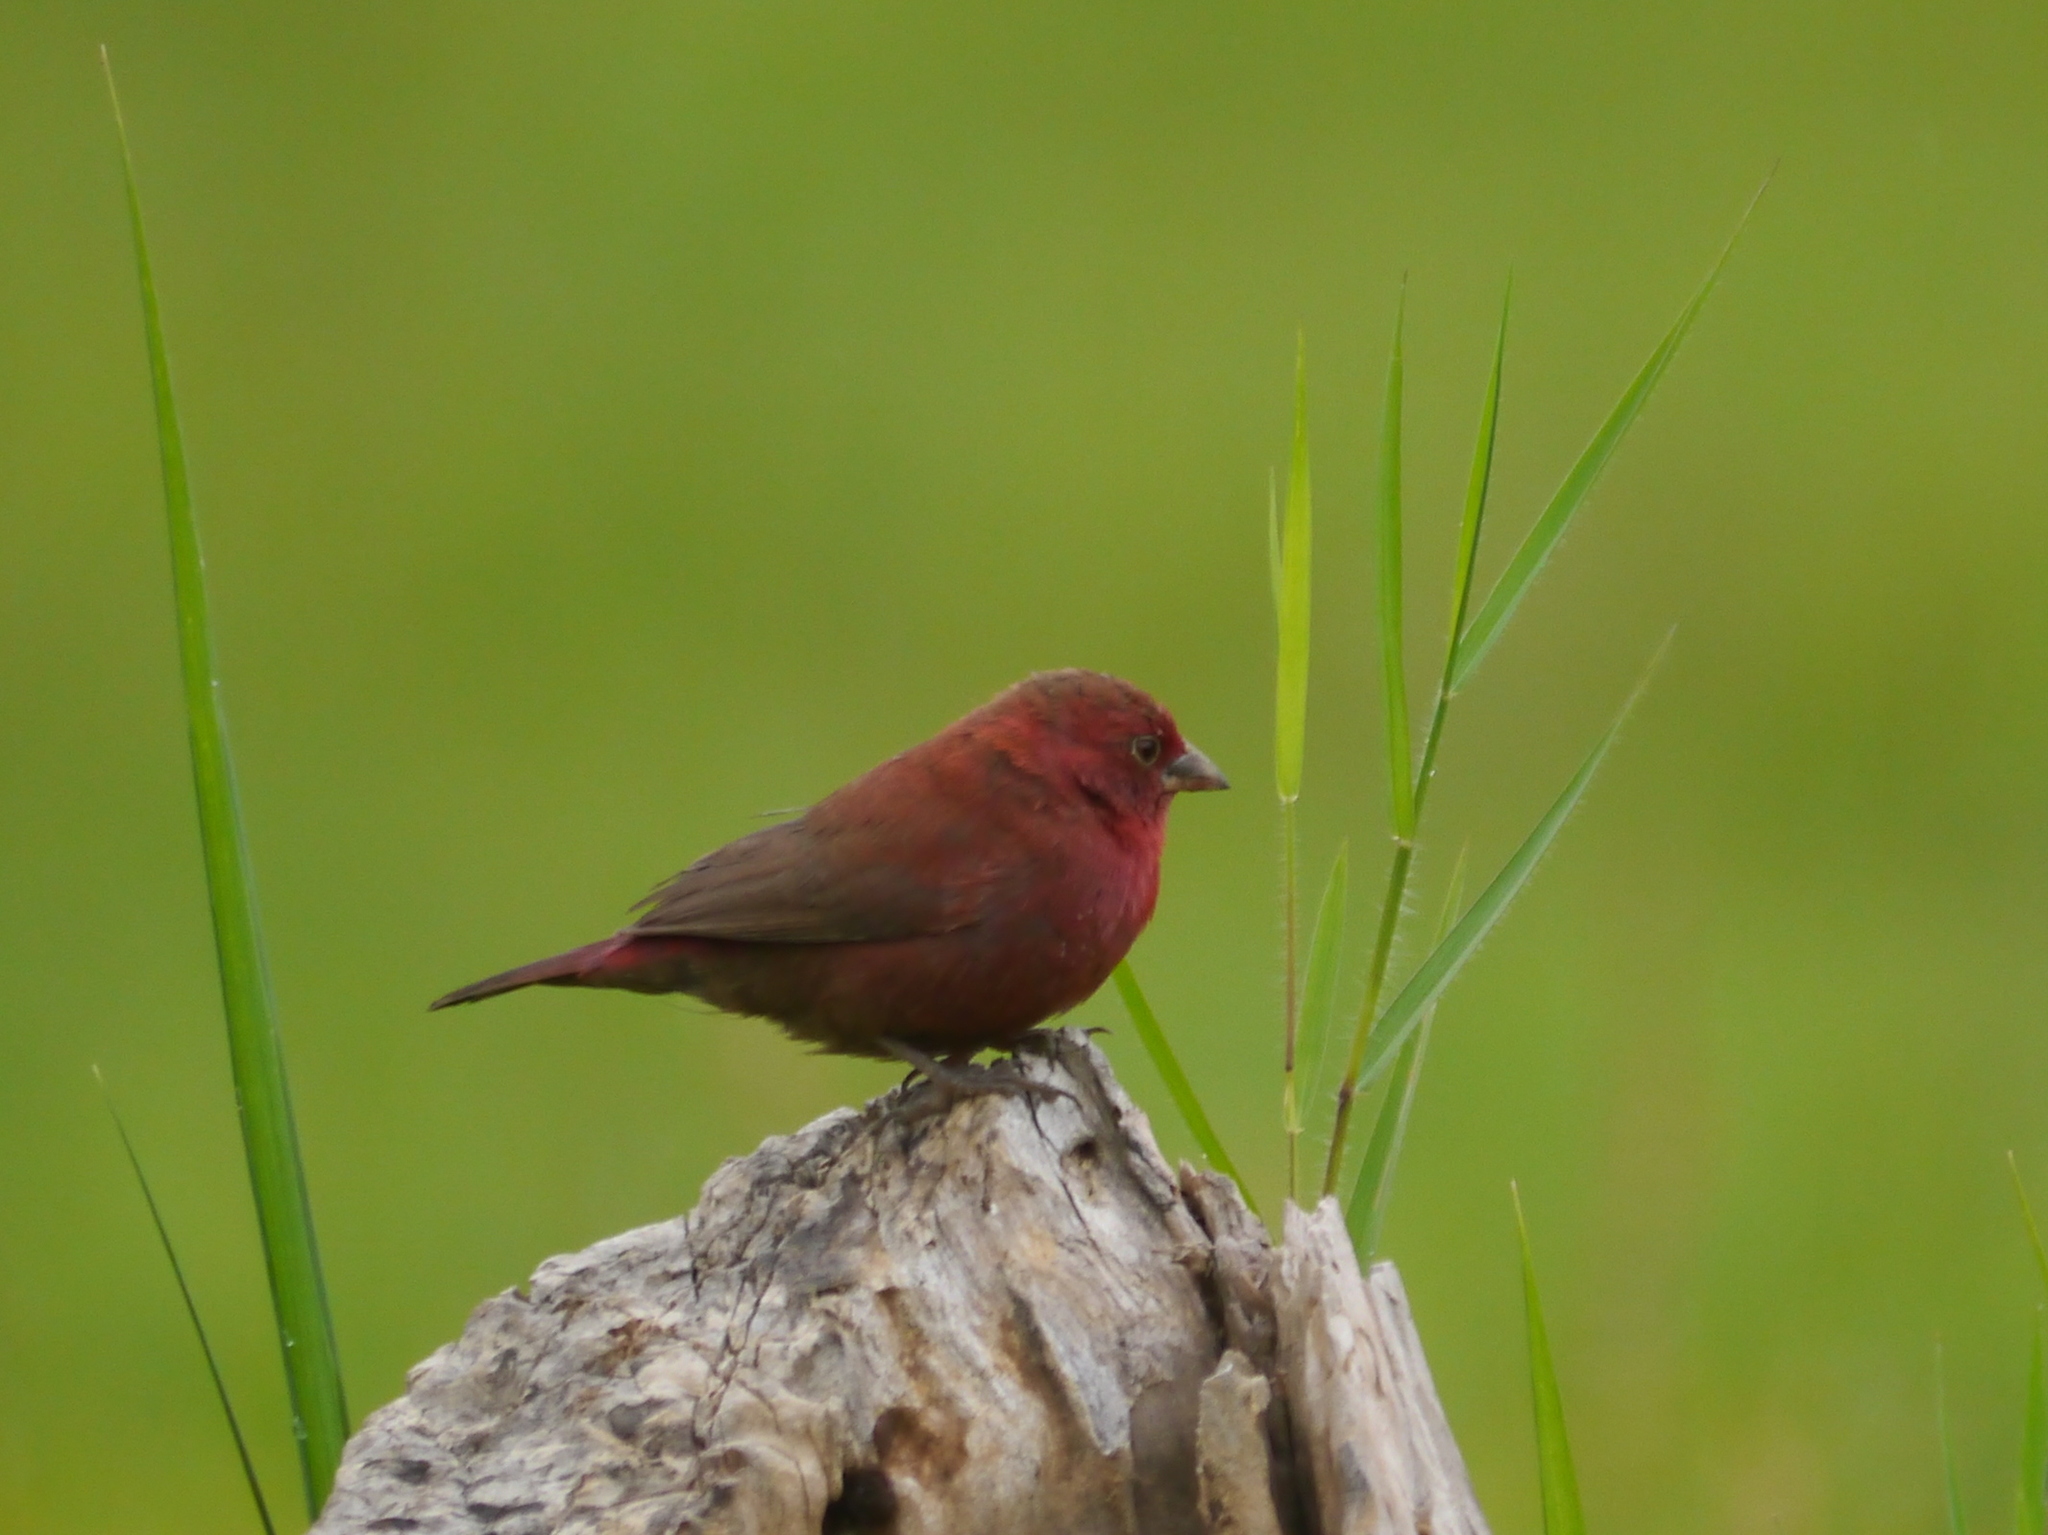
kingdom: Animalia
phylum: Chordata
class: Aves
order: Passeriformes
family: Estrildidae
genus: Lagonosticta
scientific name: Lagonosticta senegala
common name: Red-billed firefinch
